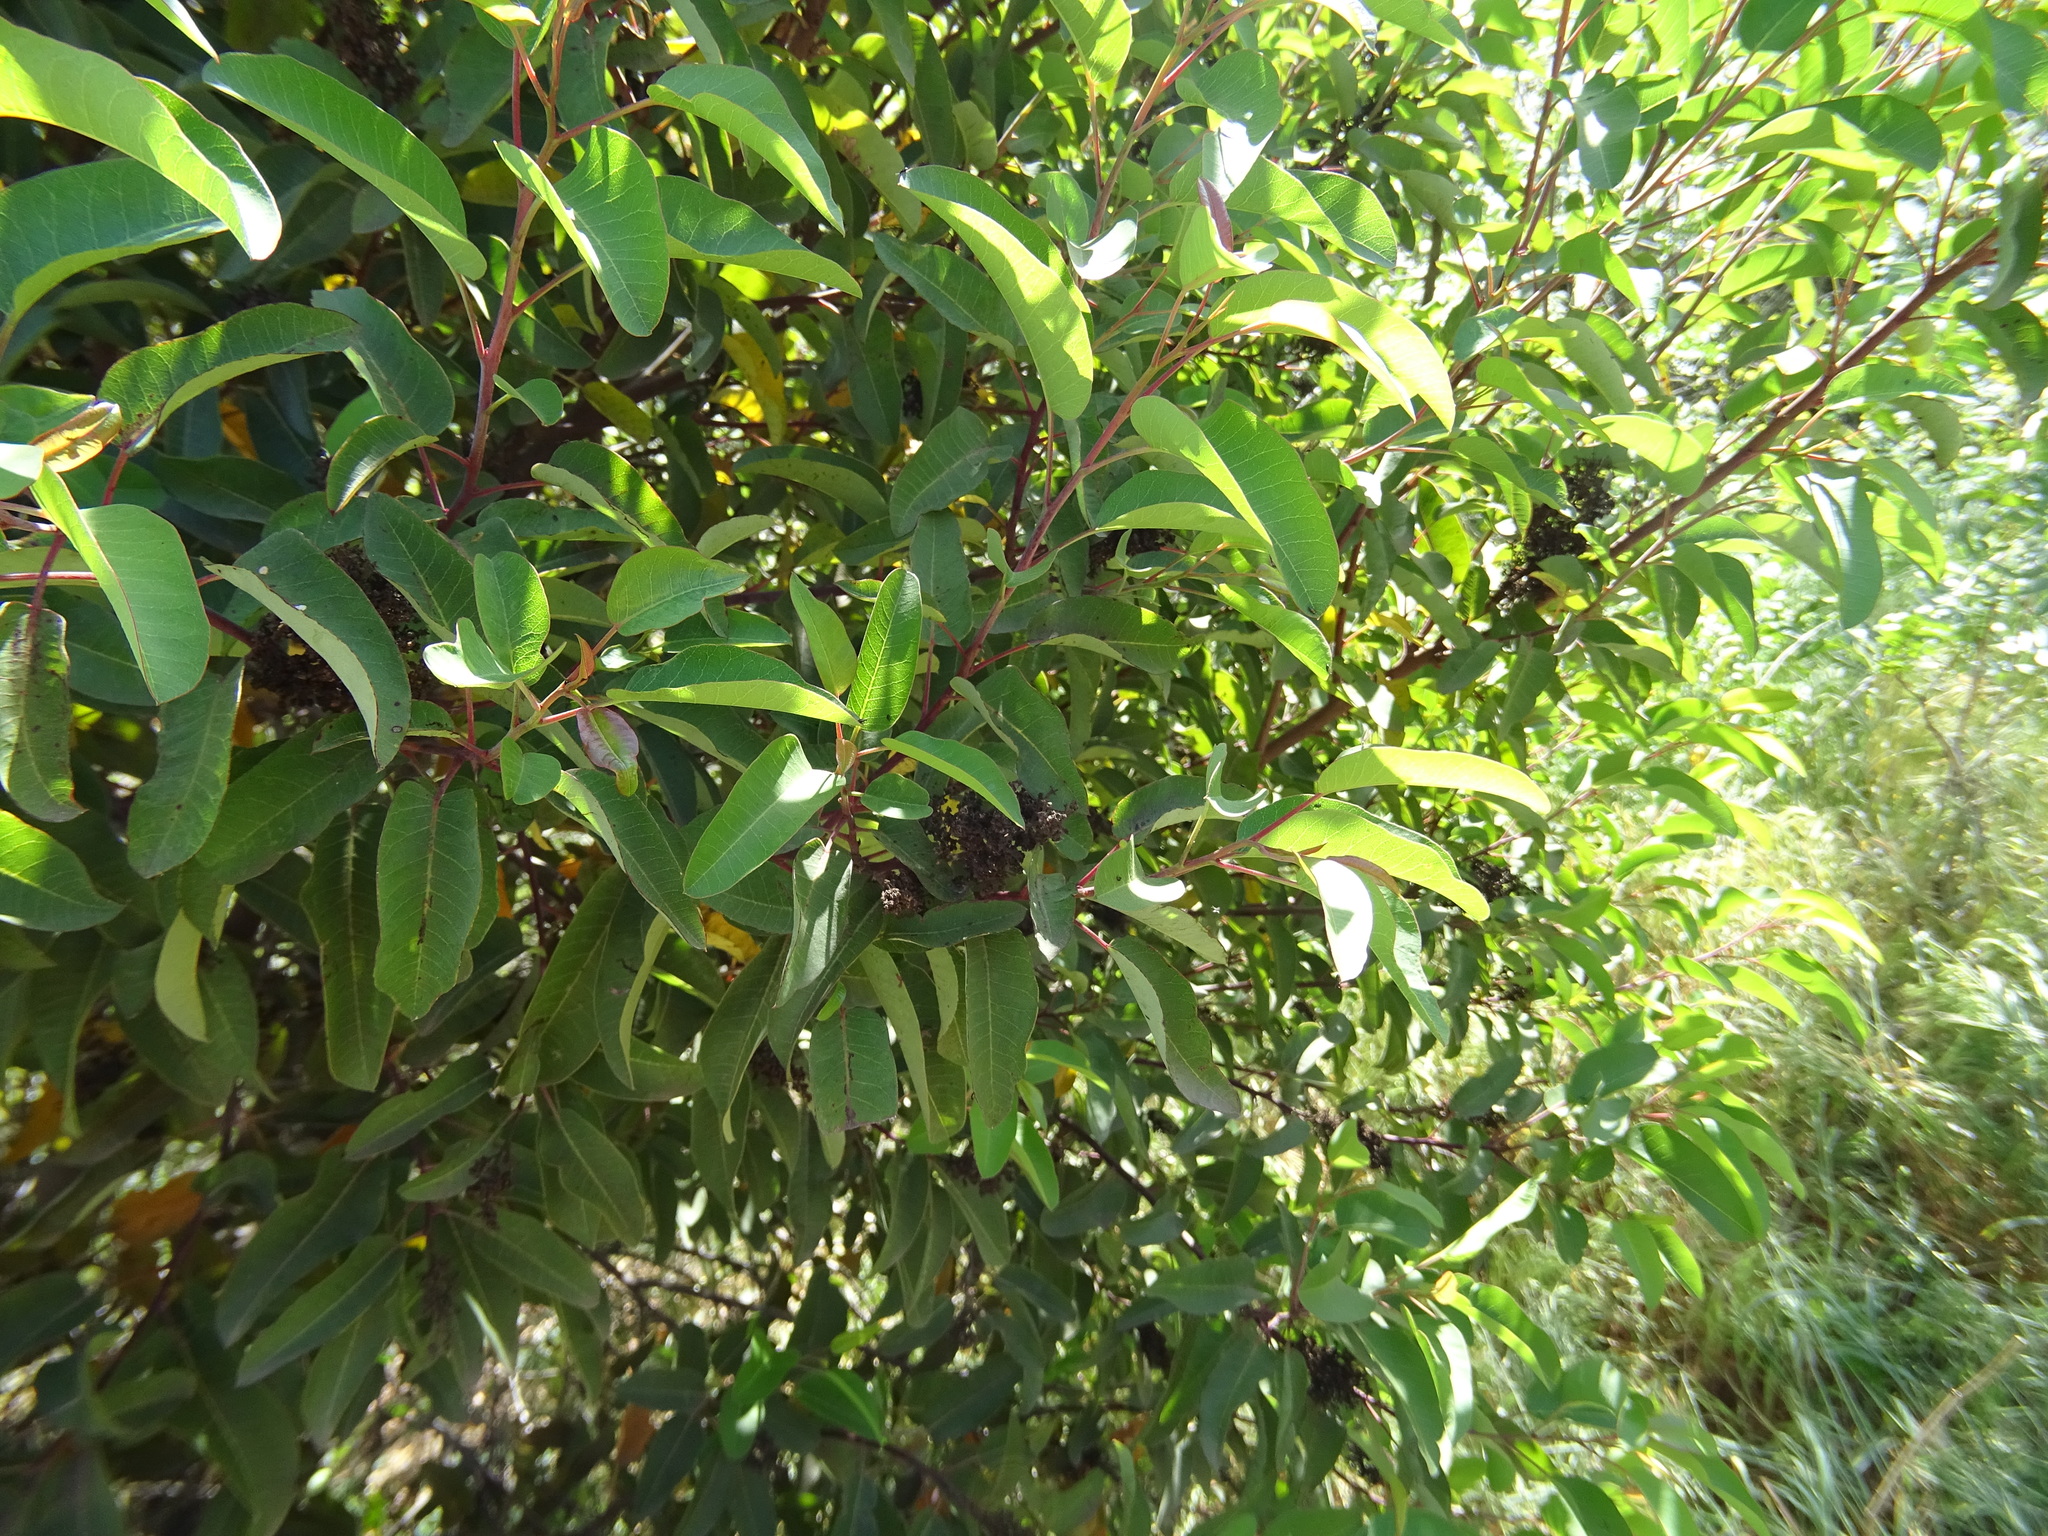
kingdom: Plantae
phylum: Tracheophyta
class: Magnoliopsida
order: Sapindales
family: Anacardiaceae
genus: Malosma
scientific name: Malosma laurina
